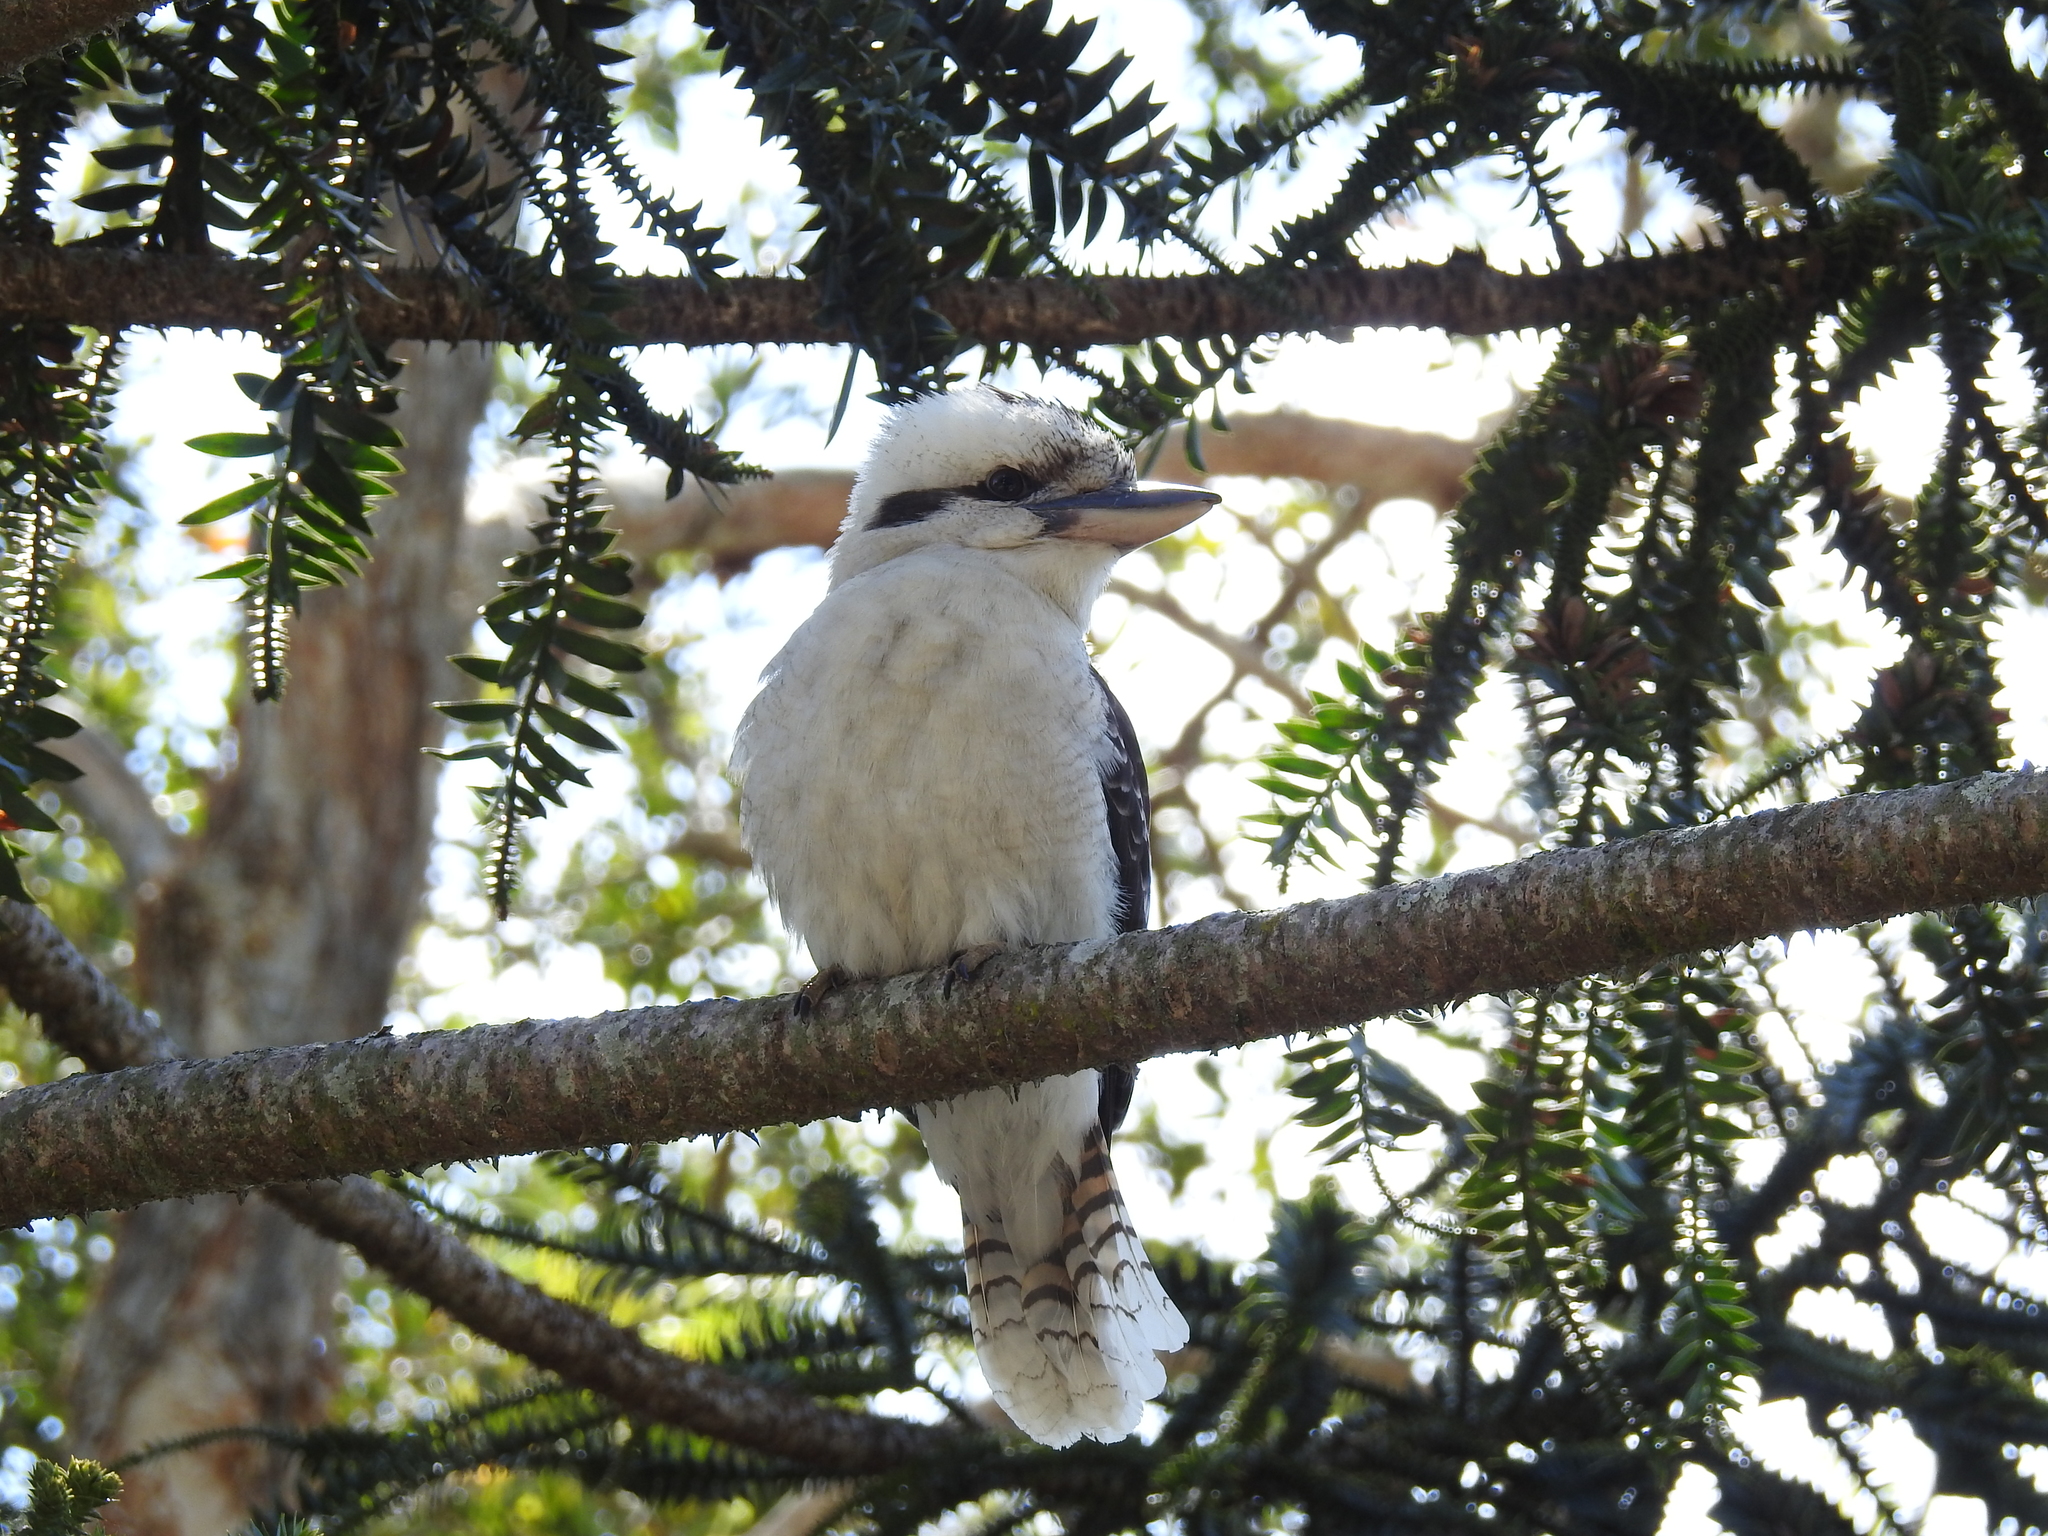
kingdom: Animalia
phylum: Chordata
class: Aves
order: Coraciiformes
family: Alcedinidae
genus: Dacelo
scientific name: Dacelo novaeguineae
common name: Laughing kookaburra
